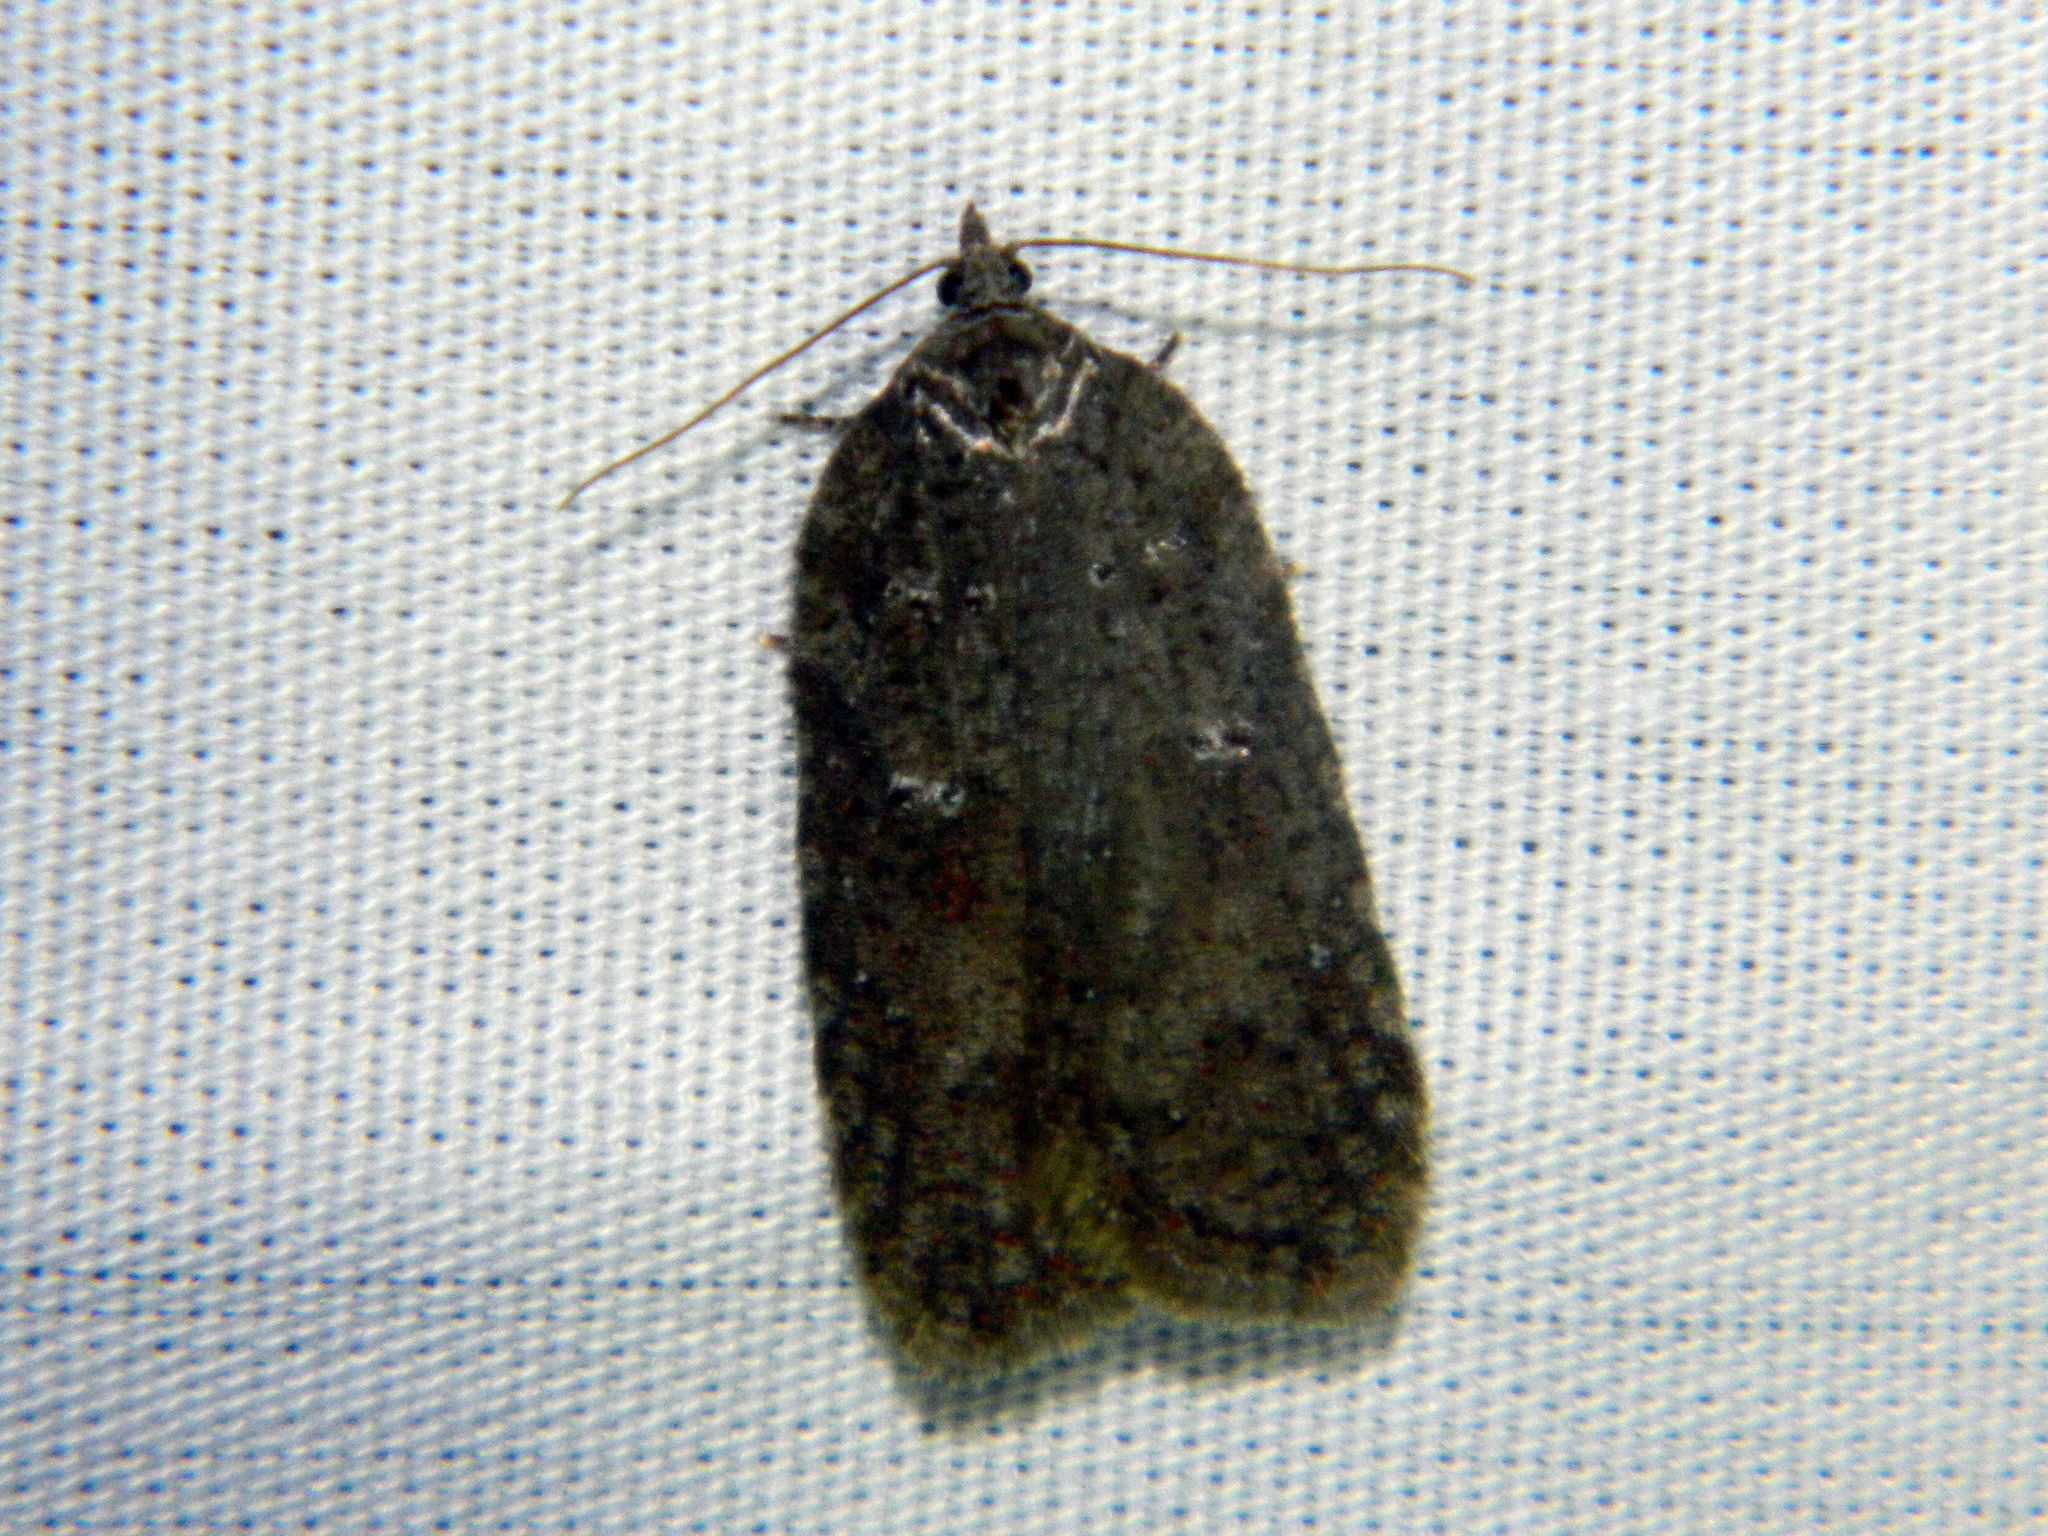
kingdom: Animalia
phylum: Arthropoda
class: Insecta
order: Lepidoptera
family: Tortricidae
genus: Acleris
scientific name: Acleris caliginosana
